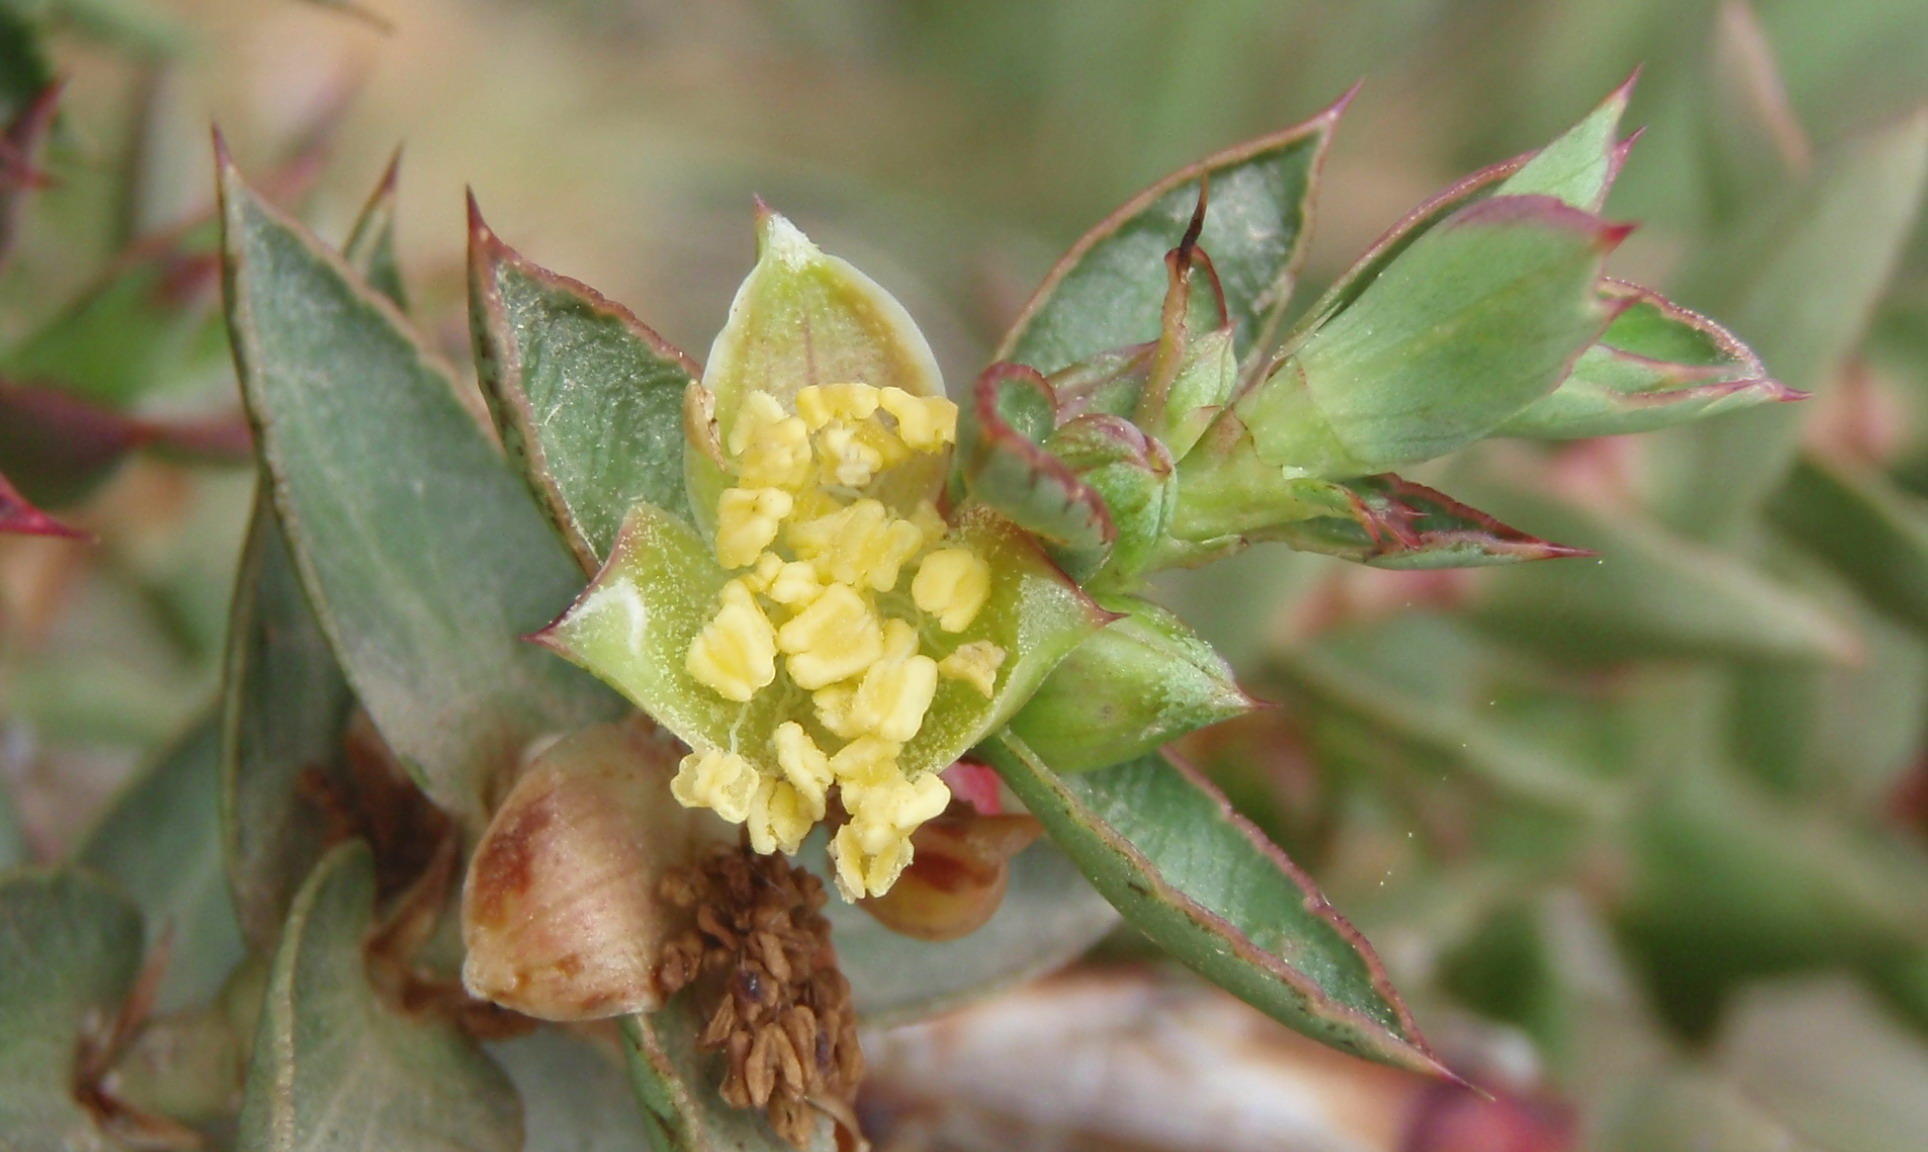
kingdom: Plantae
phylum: Tracheophyta
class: Magnoliopsida
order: Rosales
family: Rosaceae
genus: Cliffortia
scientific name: Cliffortia ilicifolia
